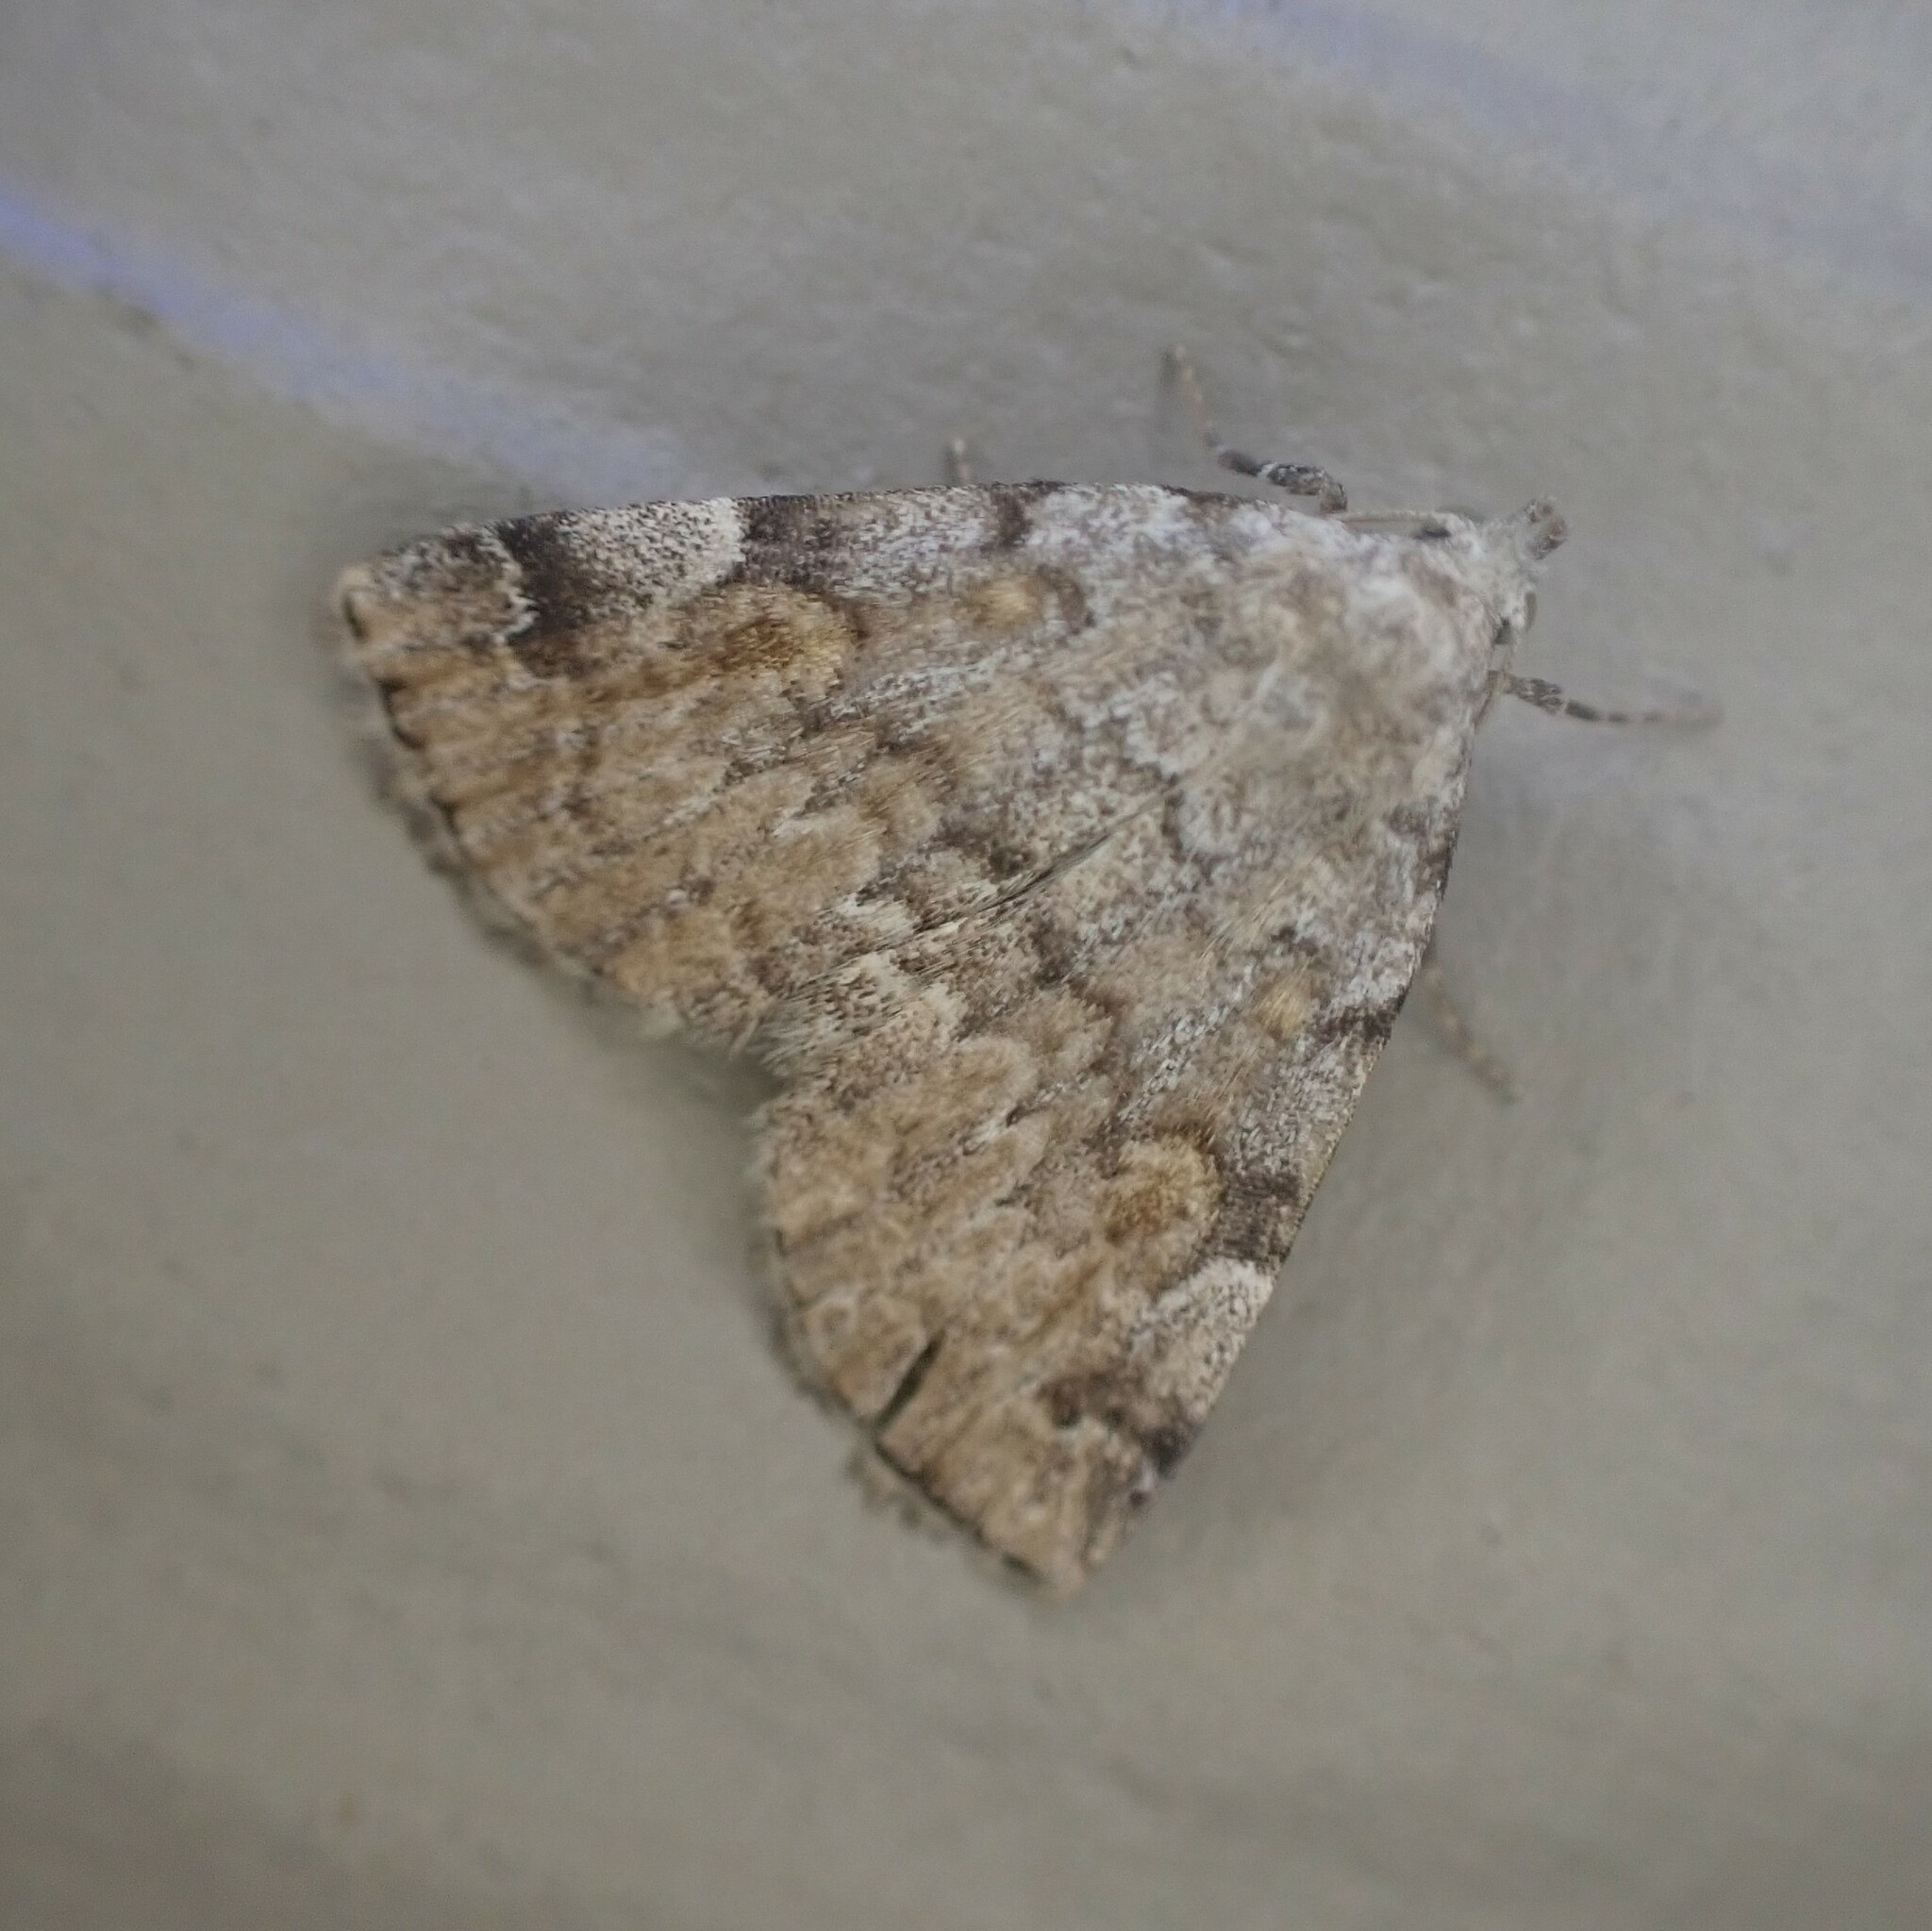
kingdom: Animalia
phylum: Arthropoda
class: Insecta
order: Lepidoptera
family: Erebidae
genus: Idia
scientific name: Idia americalis
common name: American idia moth
